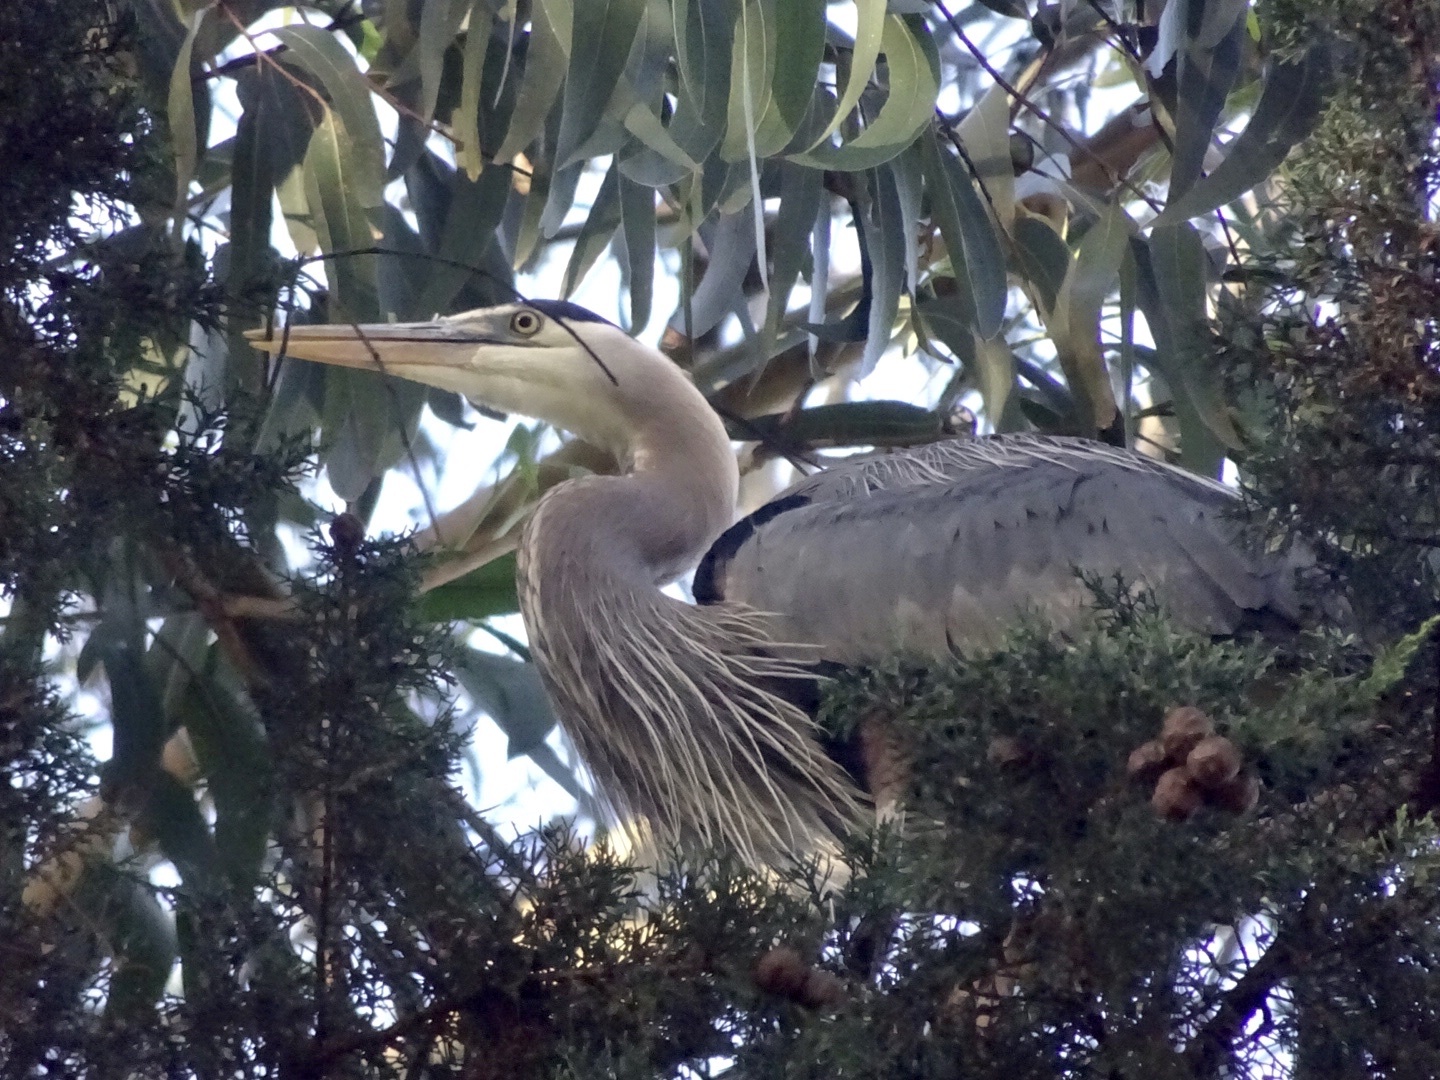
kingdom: Animalia
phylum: Chordata
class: Aves
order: Pelecaniformes
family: Ardeidae
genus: Ardea
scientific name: Ardea herodias
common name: Great blue heron
